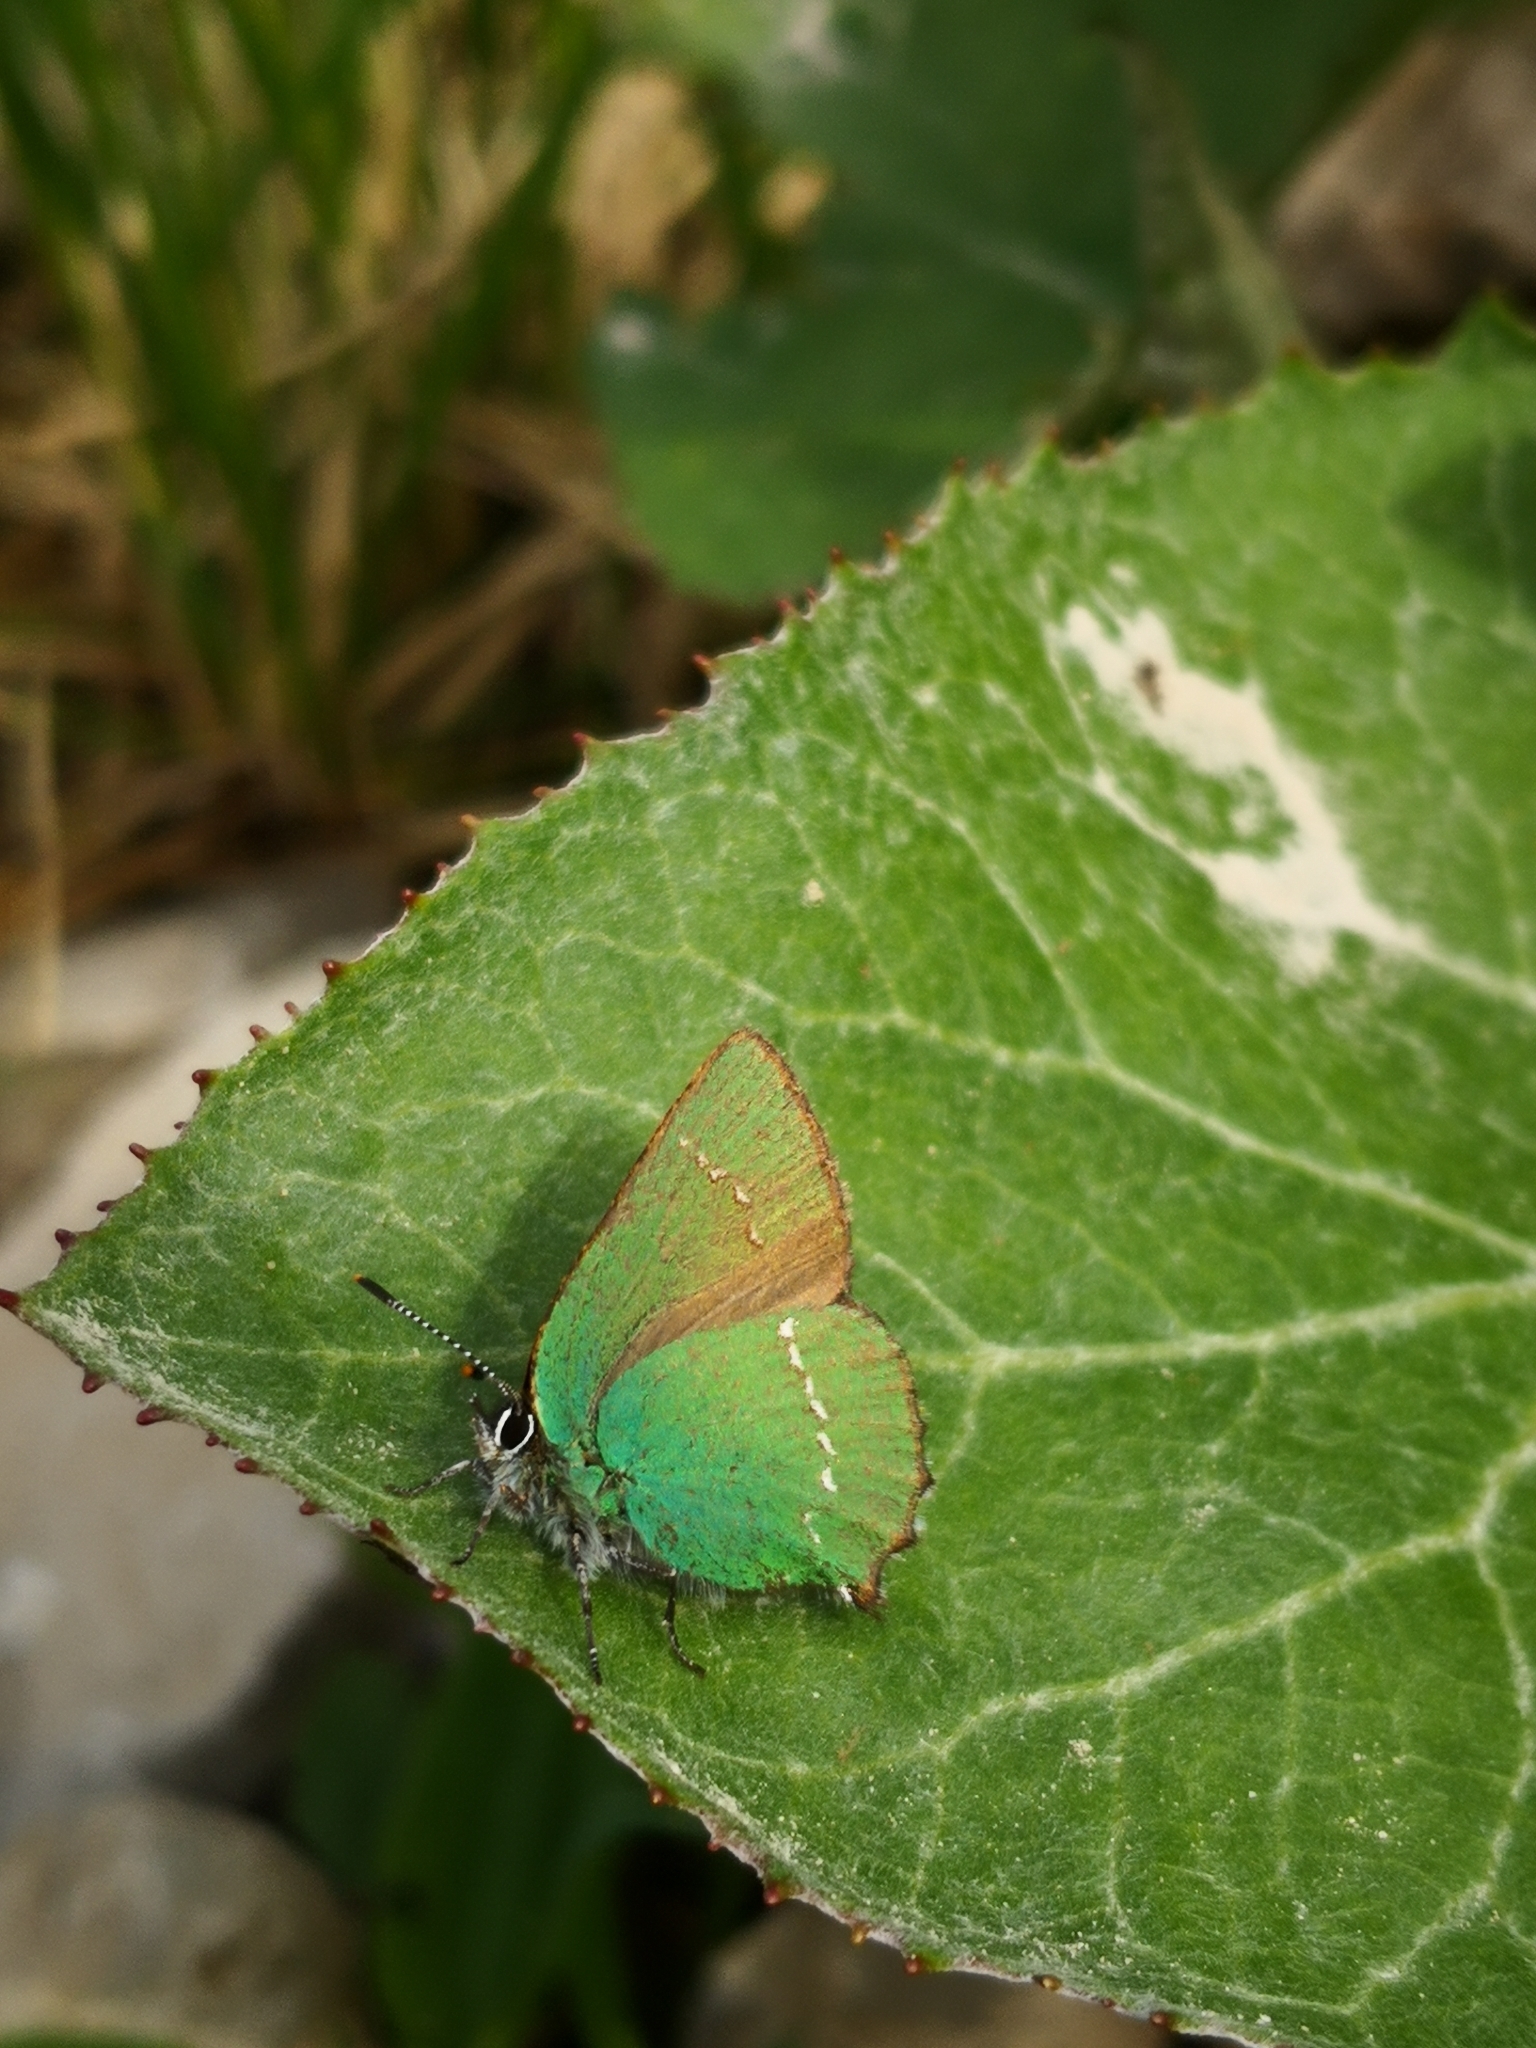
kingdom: Animalia
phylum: Arthropoda
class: Insecta
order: Lepidoptera
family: Lycaenidae
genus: Callophrys
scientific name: Callophrys rubi
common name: Green hairstreak
